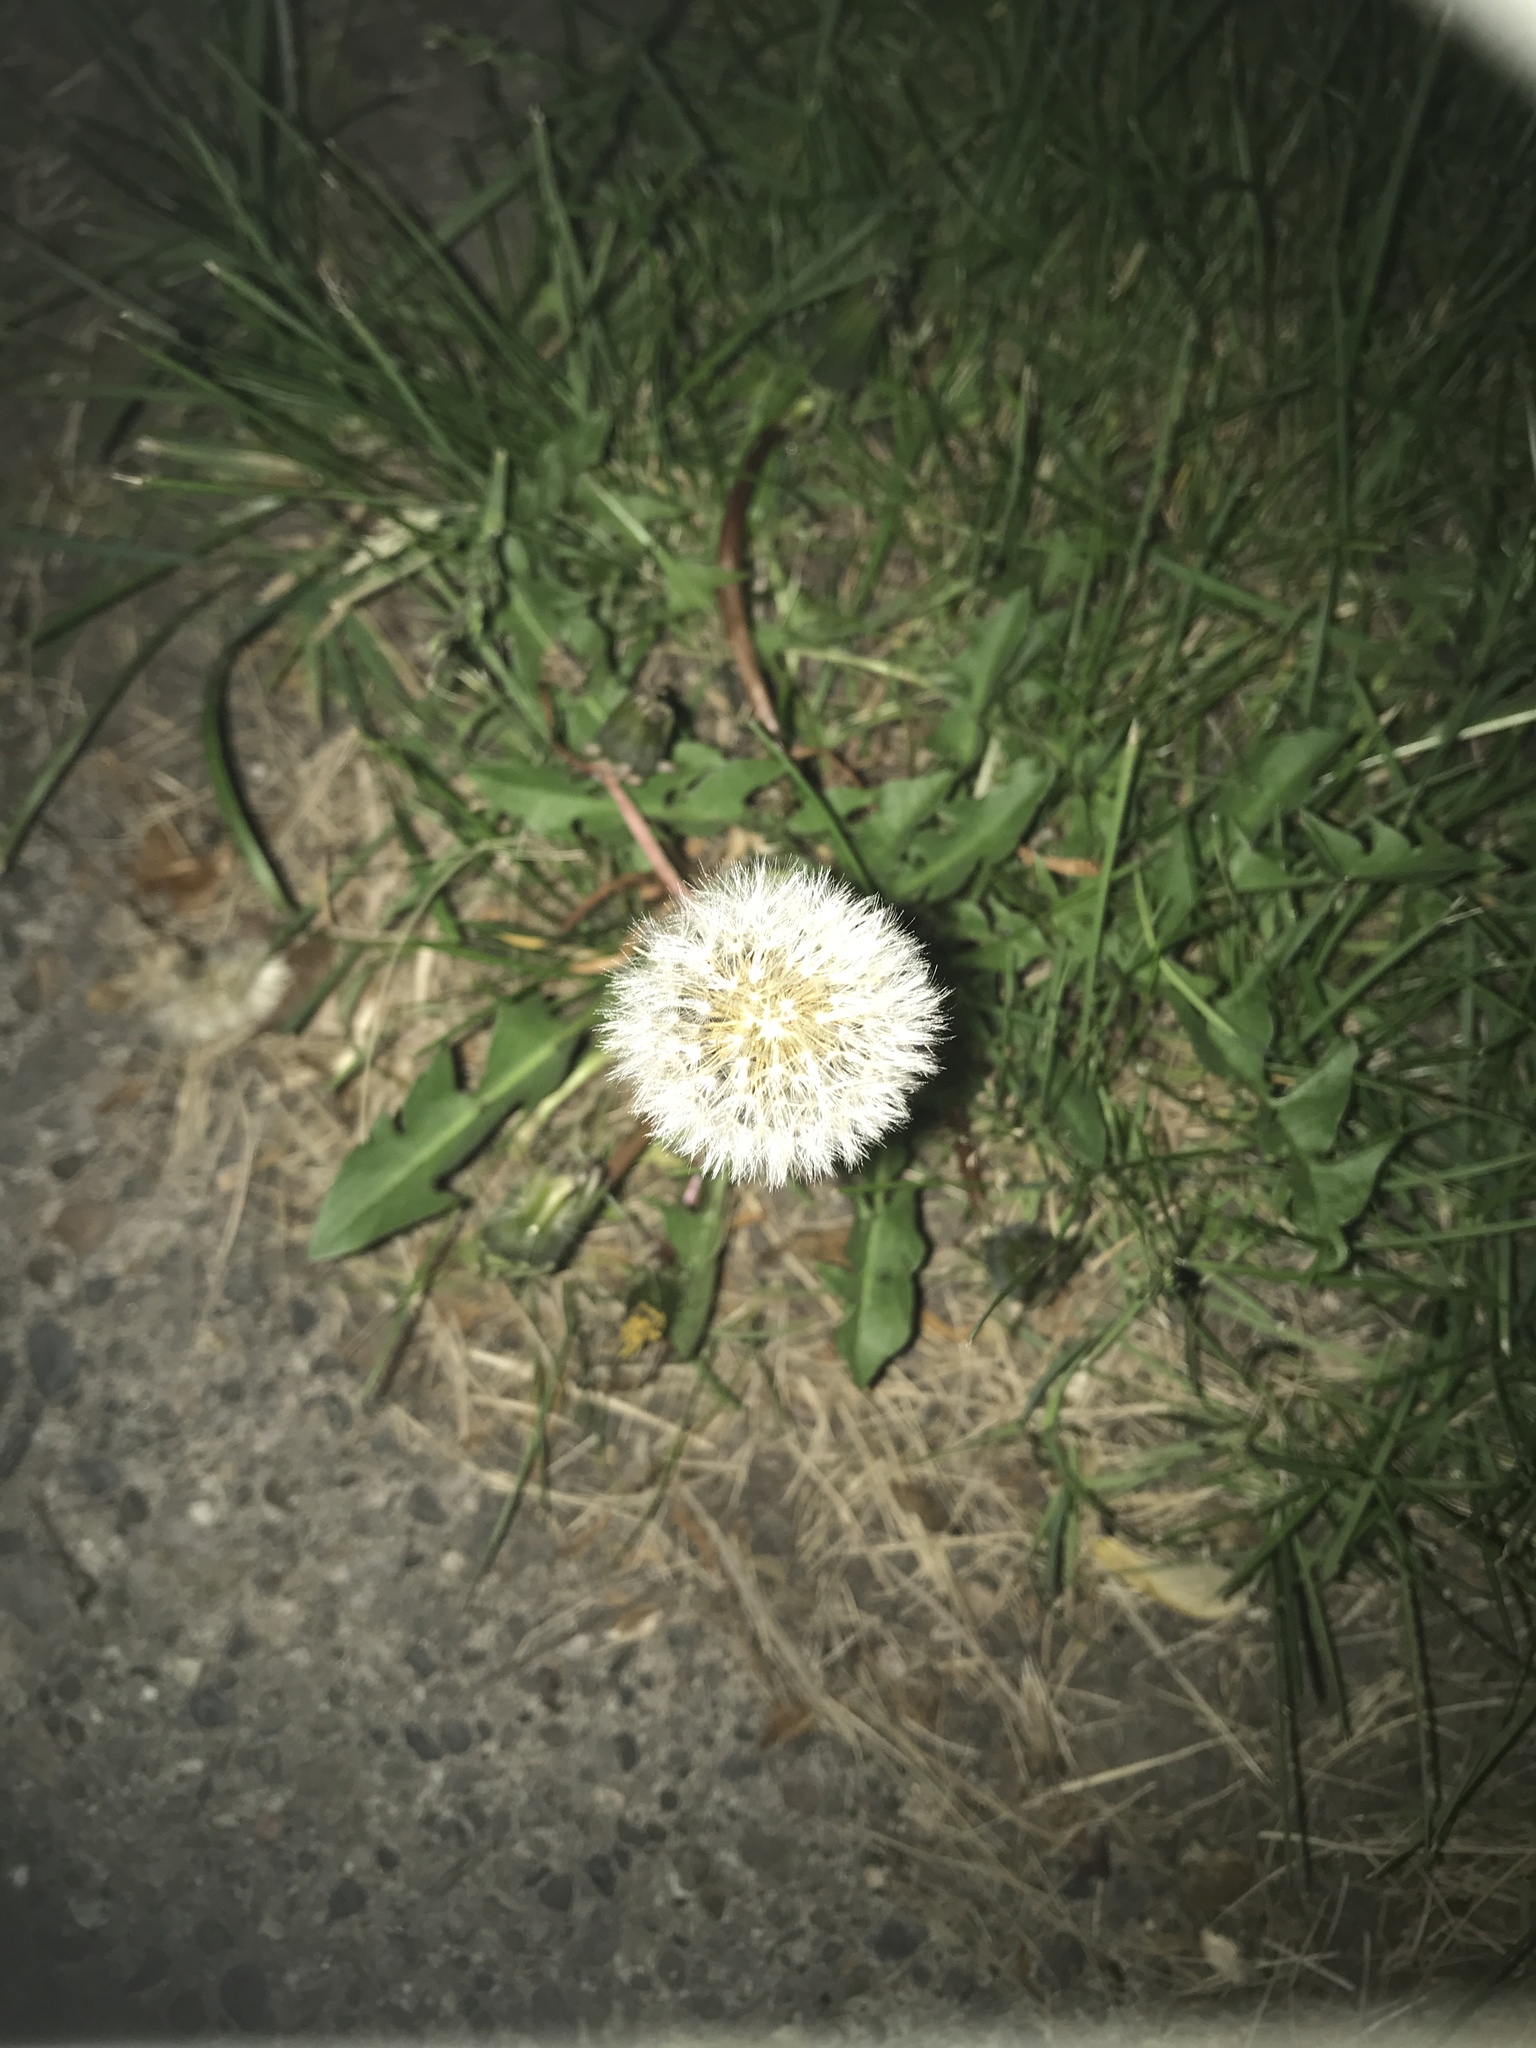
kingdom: Plantae
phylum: Tracheophyta
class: Magnoliopsida
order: Asterales
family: Asteraceae
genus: Taraxacum
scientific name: Taraxacum officinale
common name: Common dandelion
